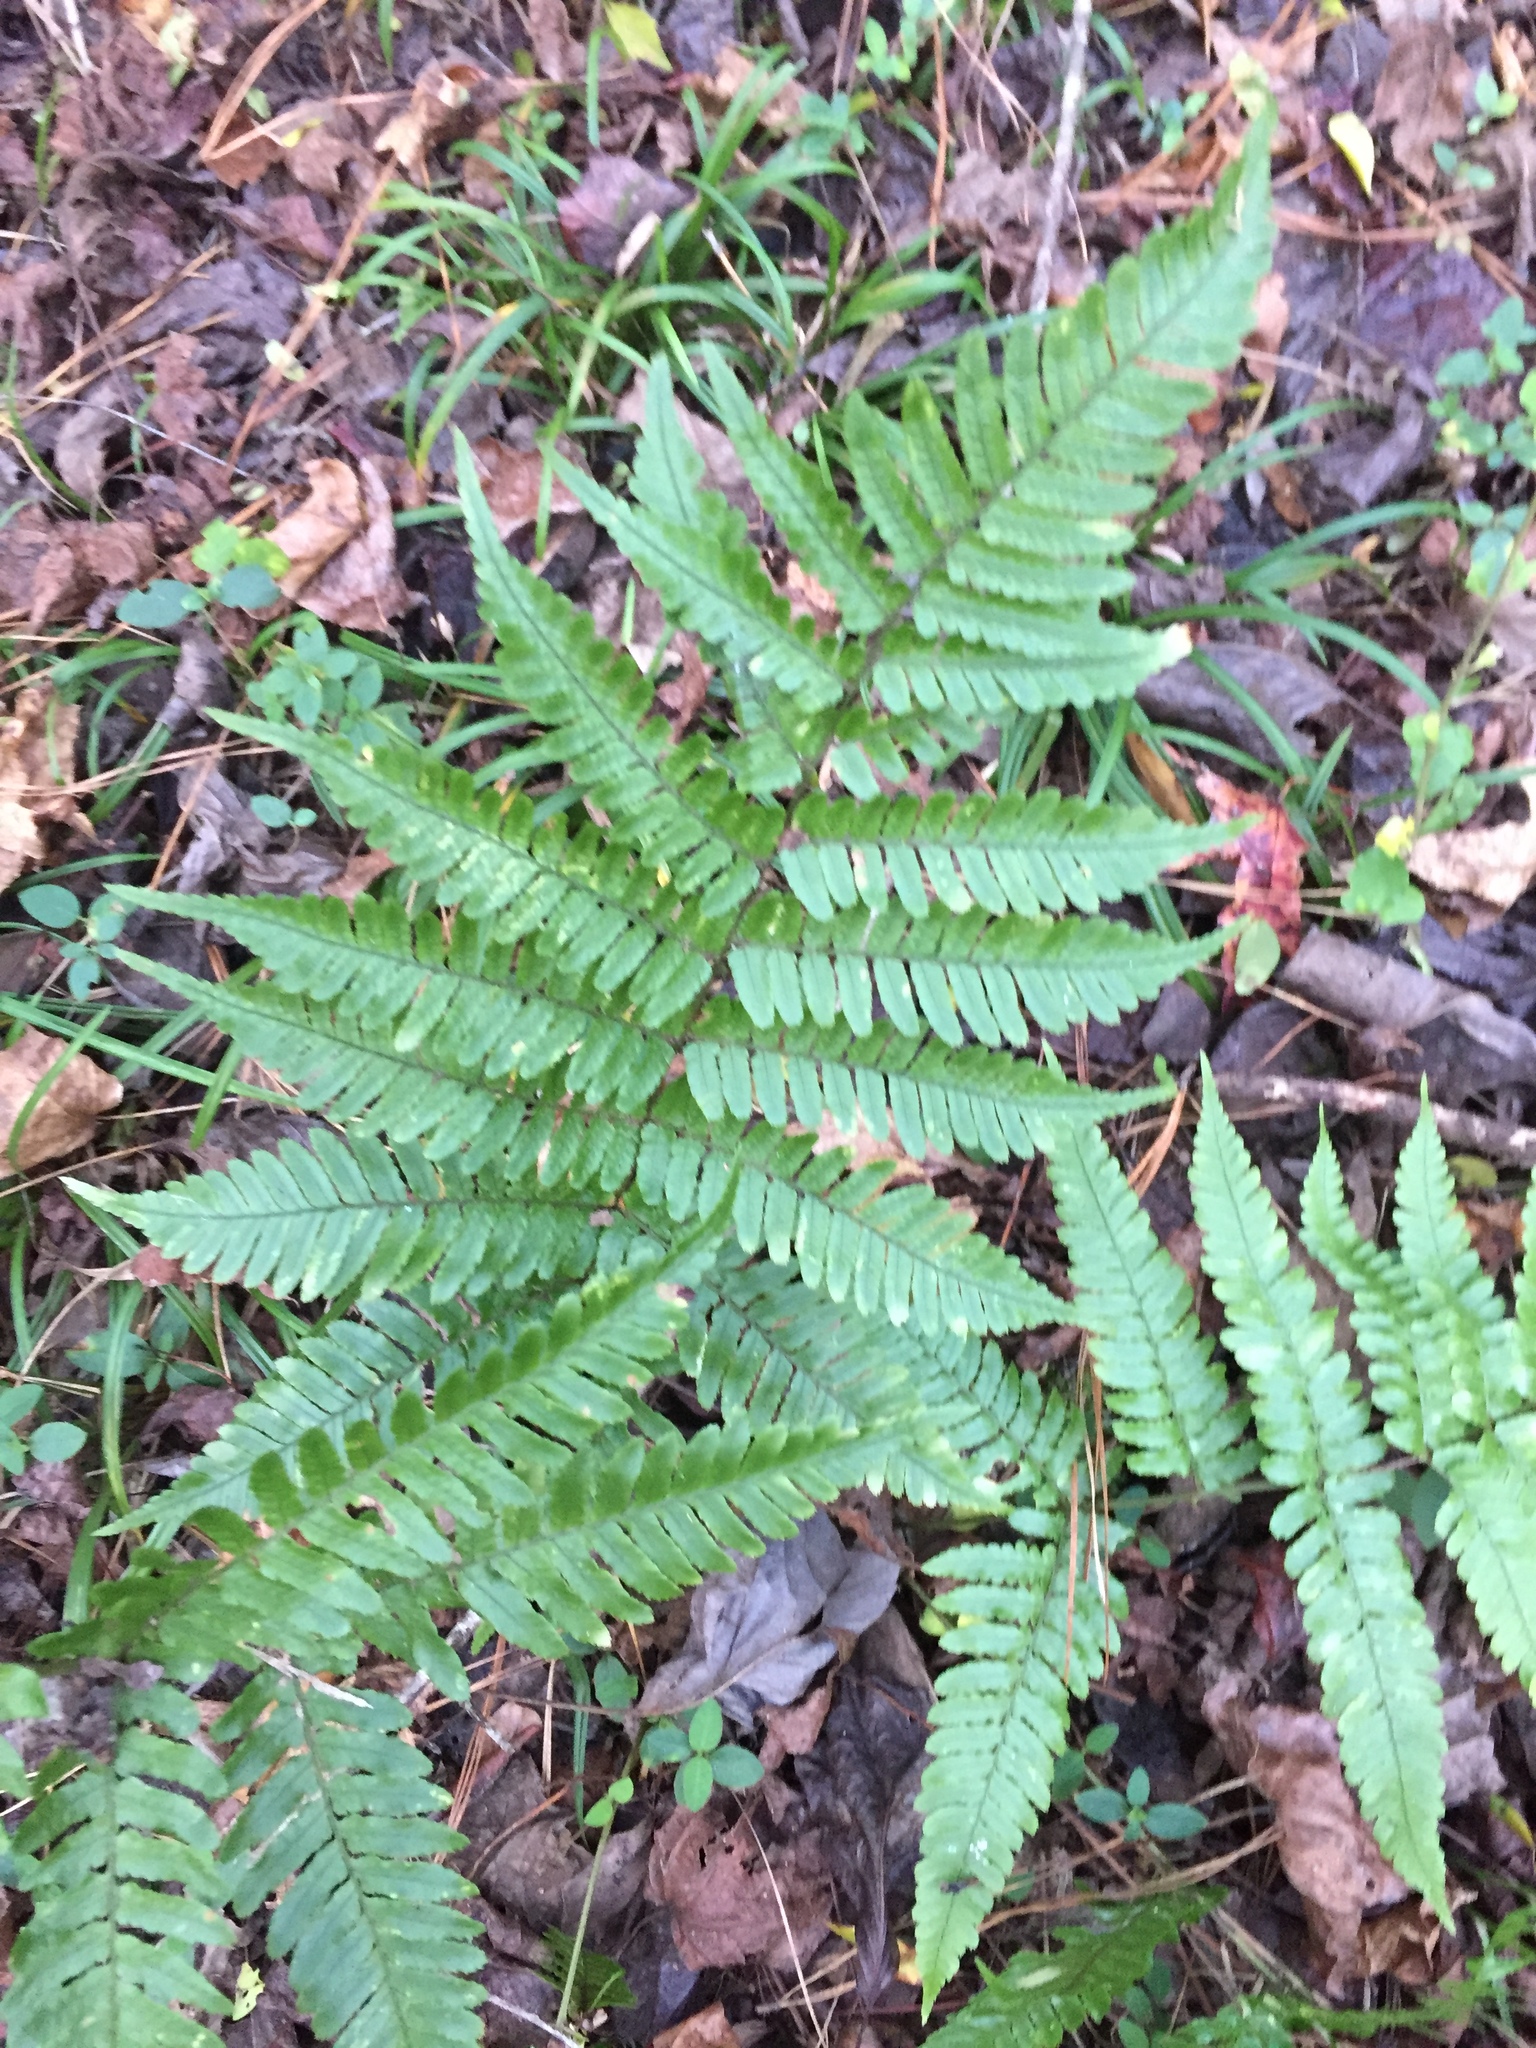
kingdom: Plantae
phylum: Tracheophyta
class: Polypodiopsida
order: Polypodiales
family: Dryopteridaceae
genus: Dryopteris
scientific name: Dryopteris erythrosora
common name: Autumn fern
